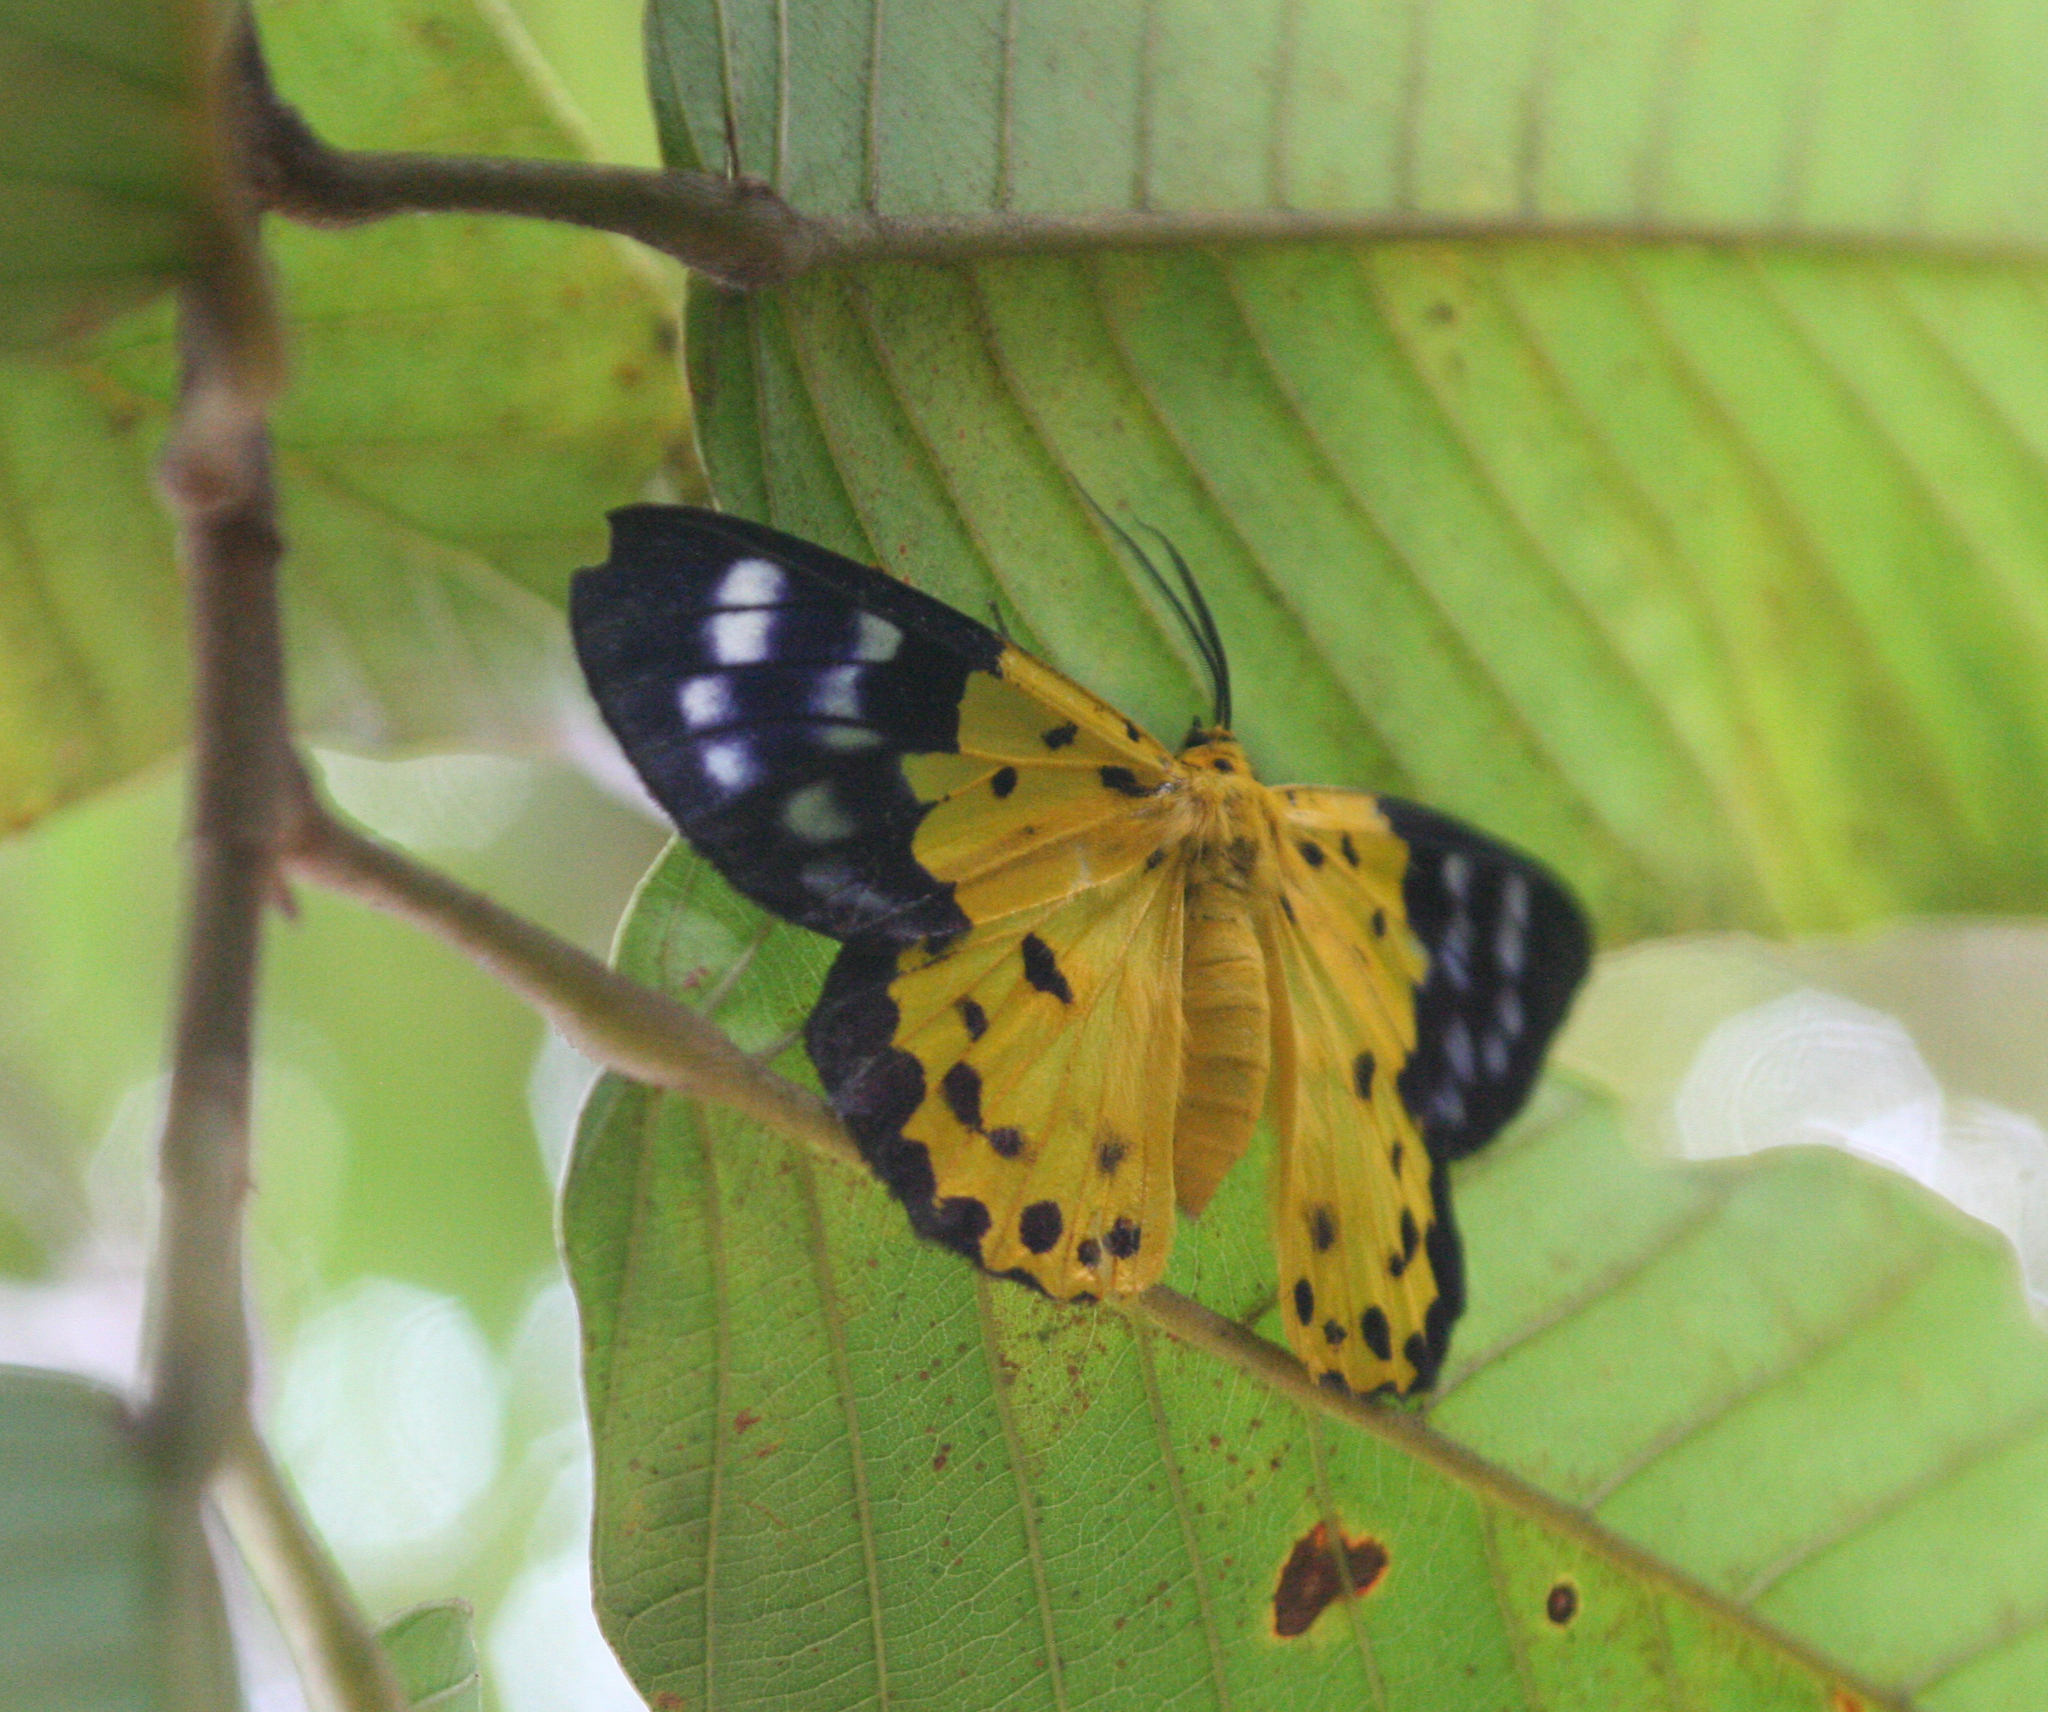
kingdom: Animalia
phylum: Arthropoda
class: Insecta
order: Lepidoptera
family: Geometridae
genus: Dysphania
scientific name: Dysphania sagana
